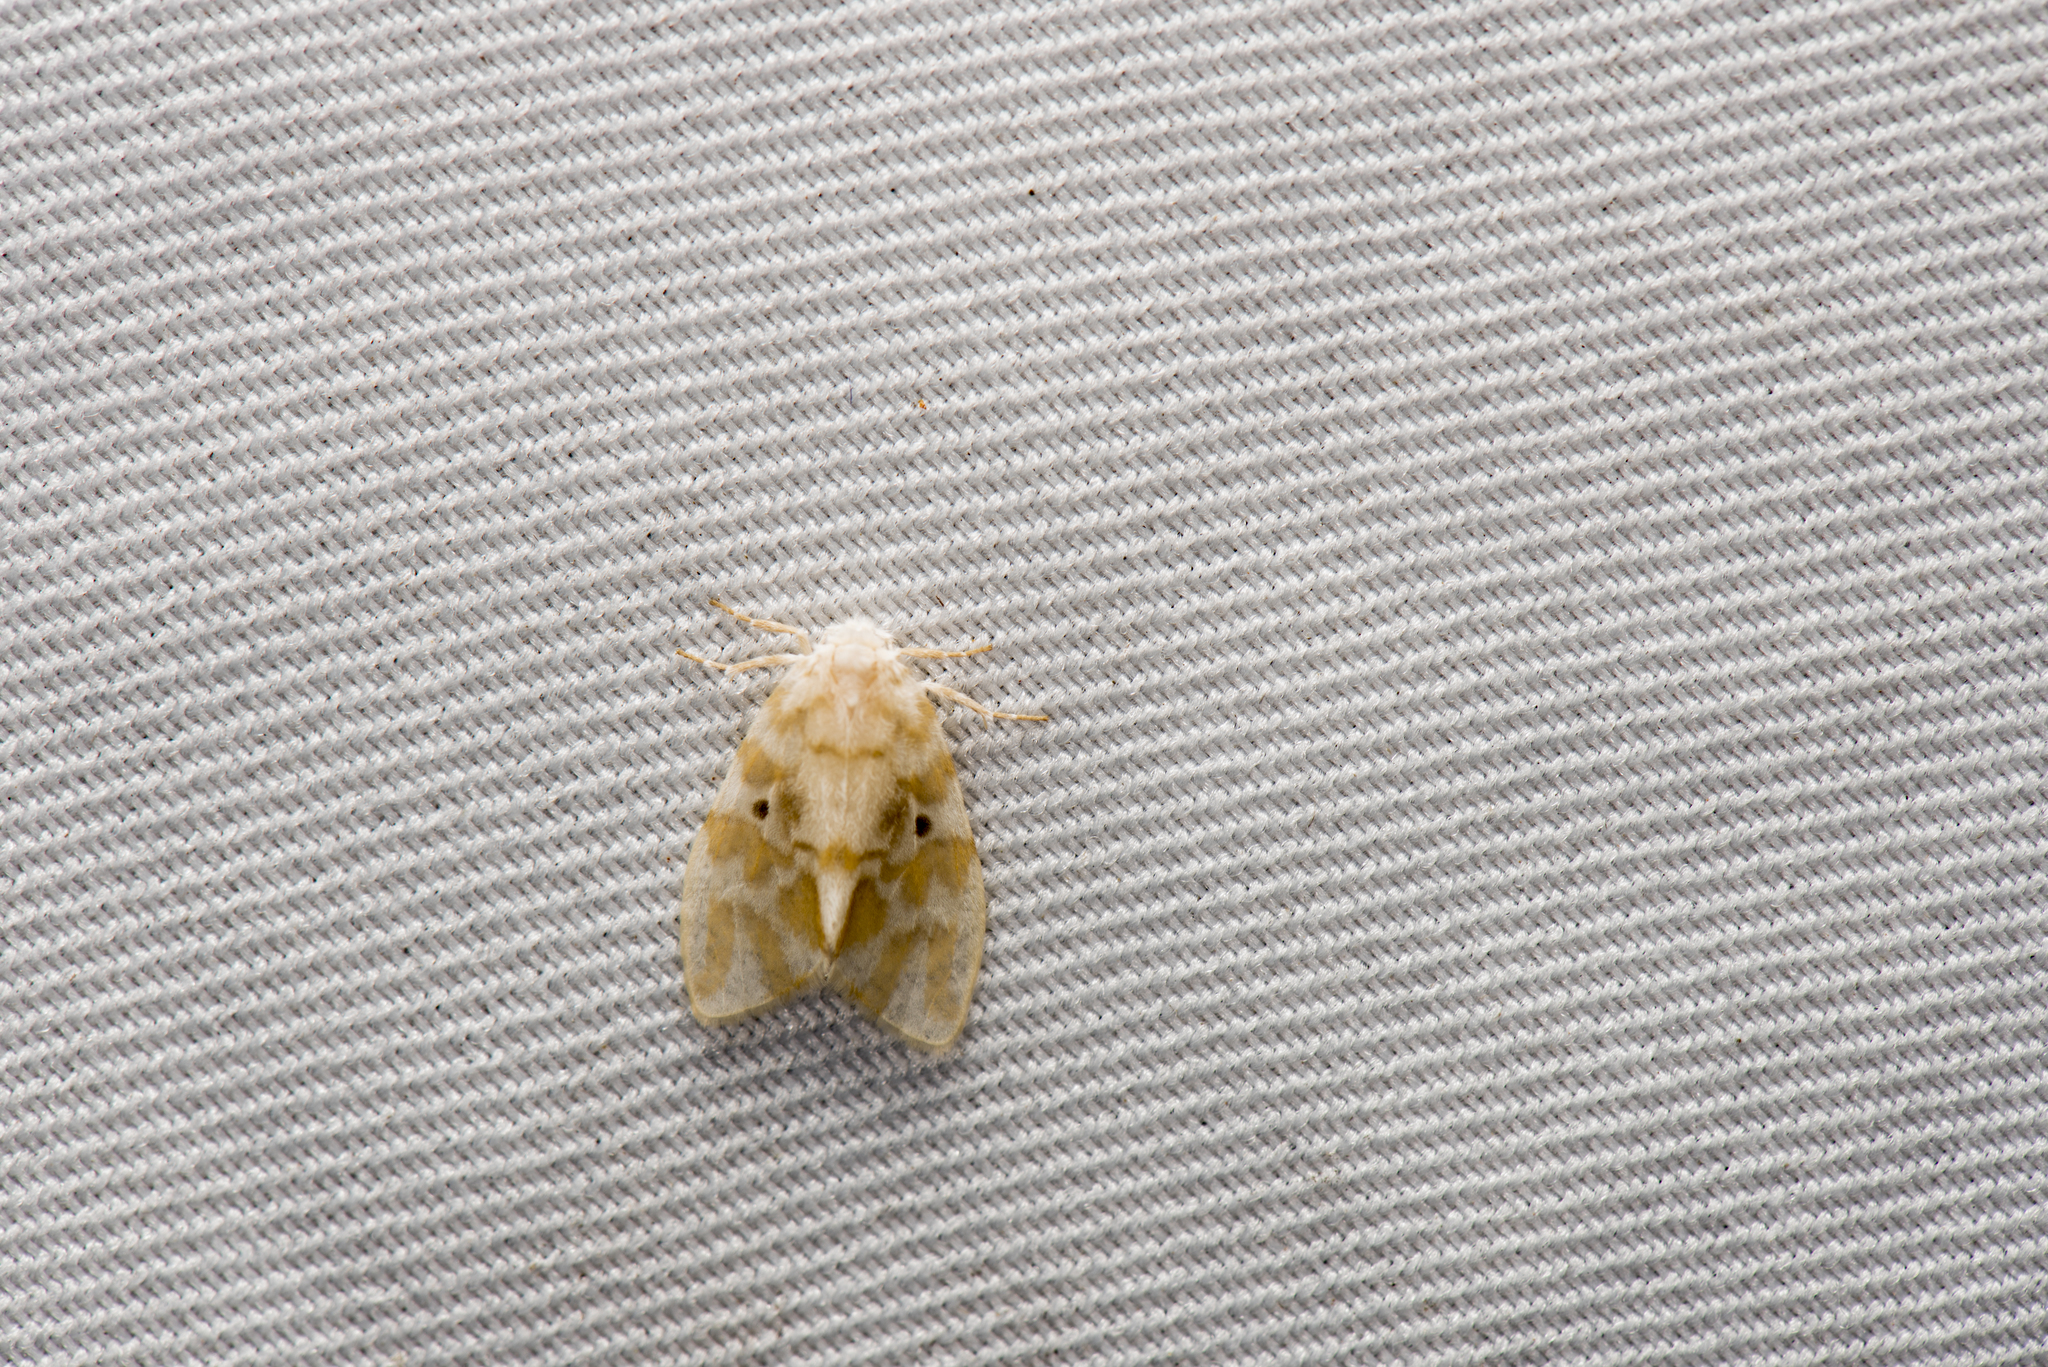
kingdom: Animalia
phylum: Arthropoda
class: Insecta
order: Lepidoptera
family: Erebidae
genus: Nudaria
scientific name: Nudaria ranruna
